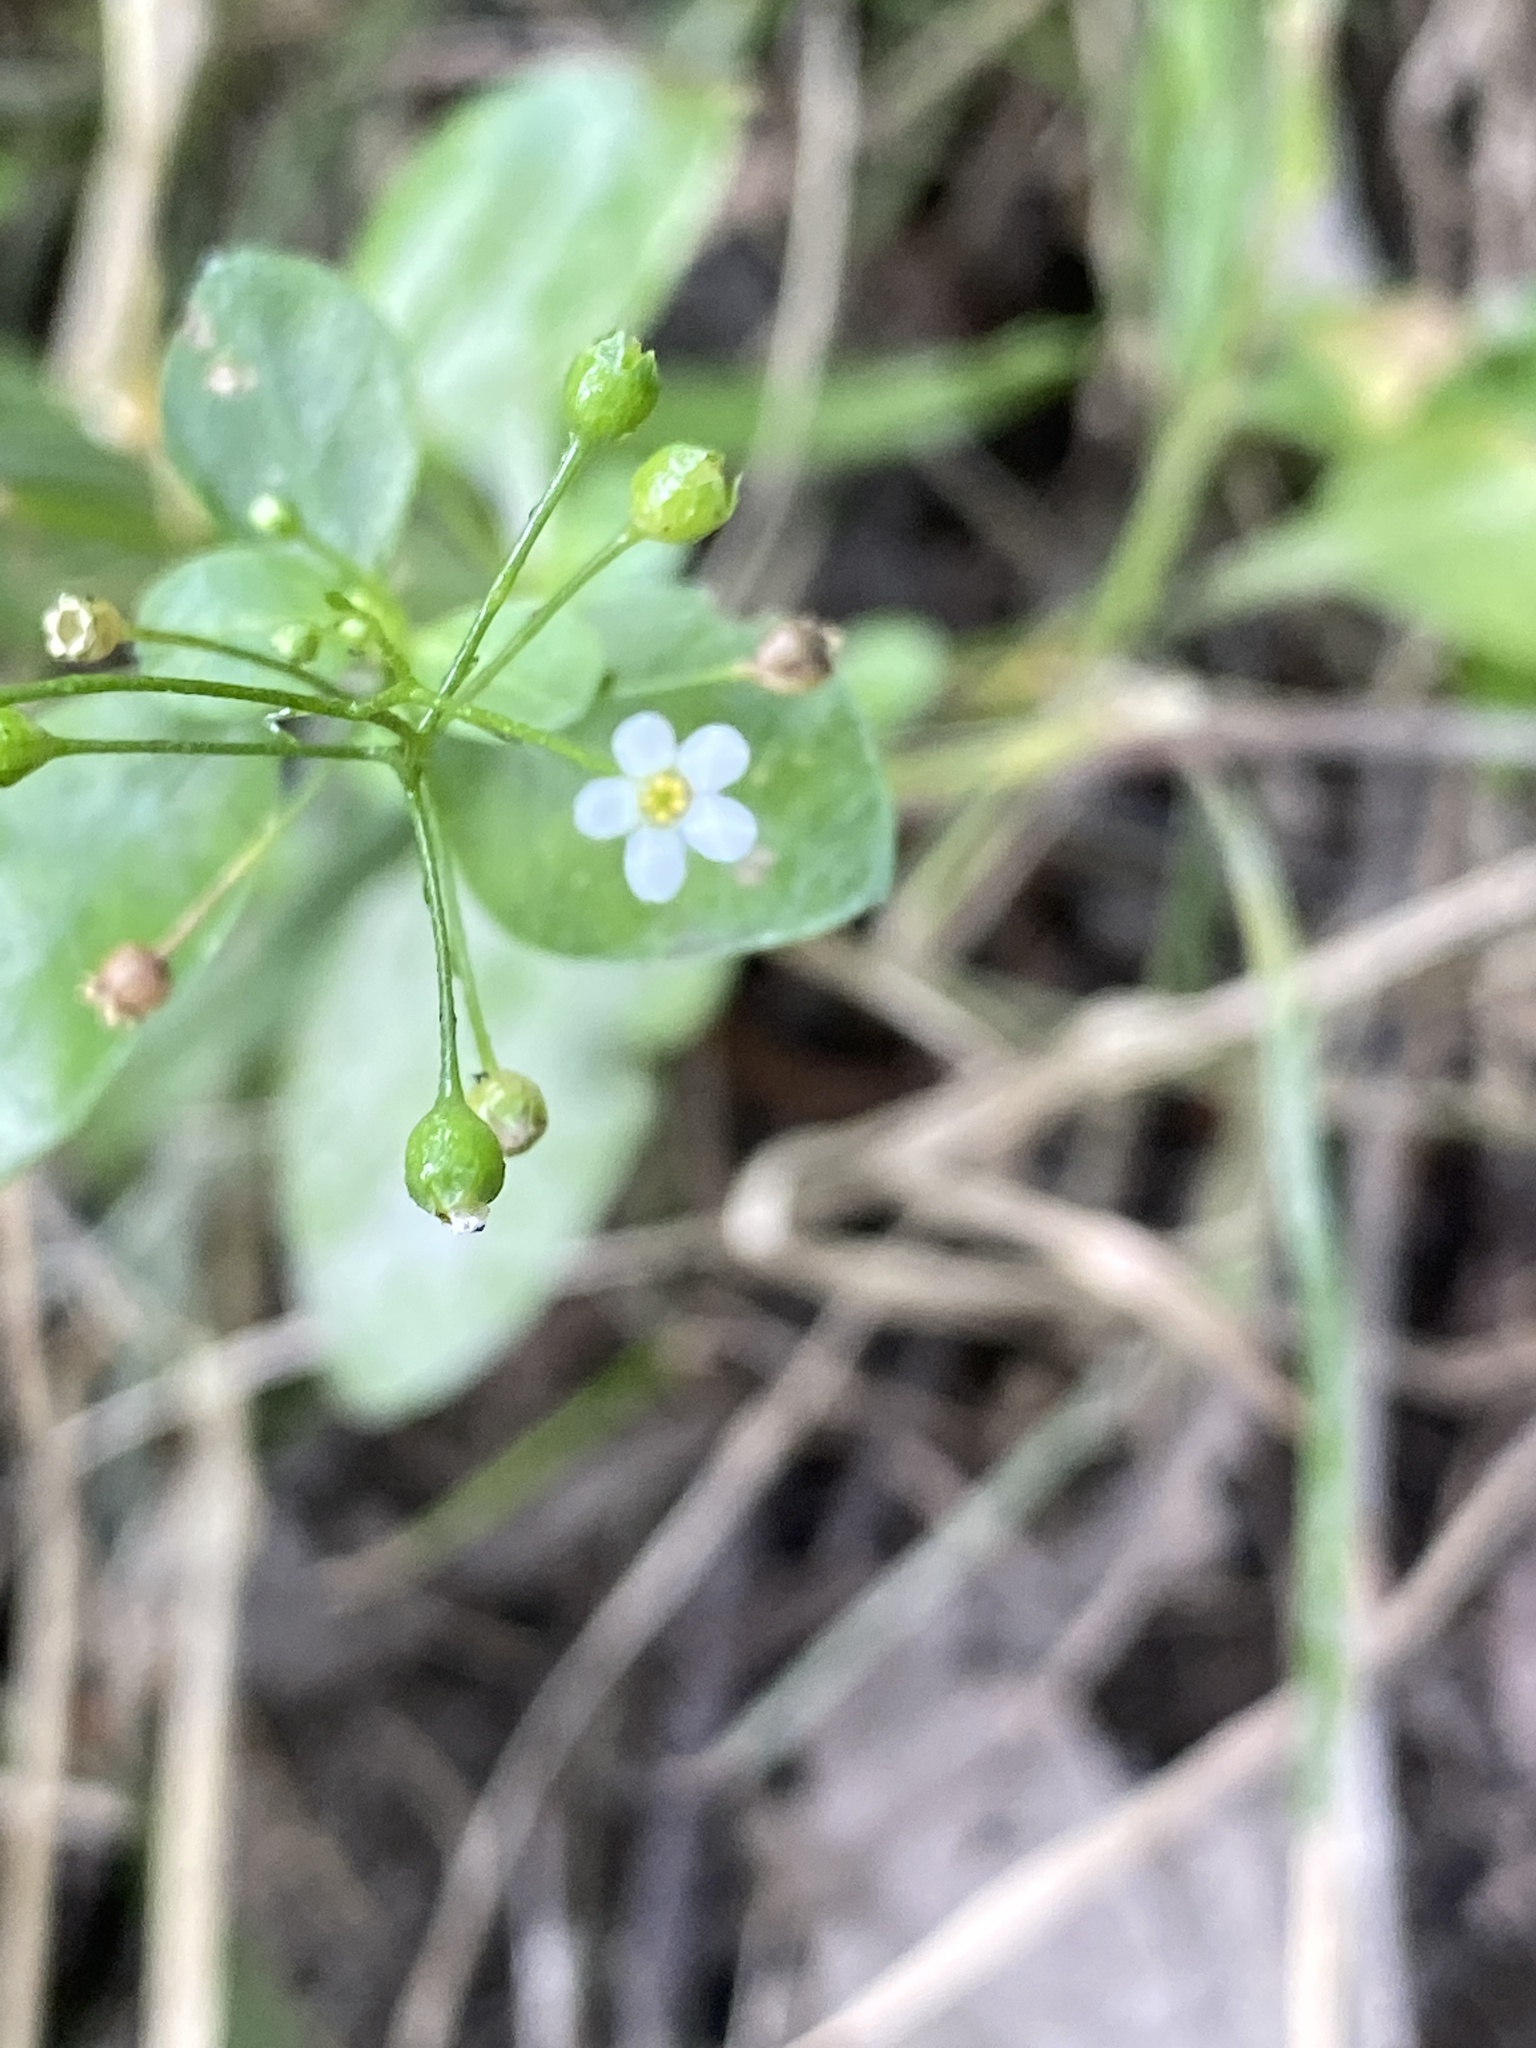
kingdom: Plantae
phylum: Tracheophyta
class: Magnoliopsida
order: Ericales
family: Primulaceae
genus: Samolus
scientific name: Samolus parviflorus
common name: False water pimpernel
